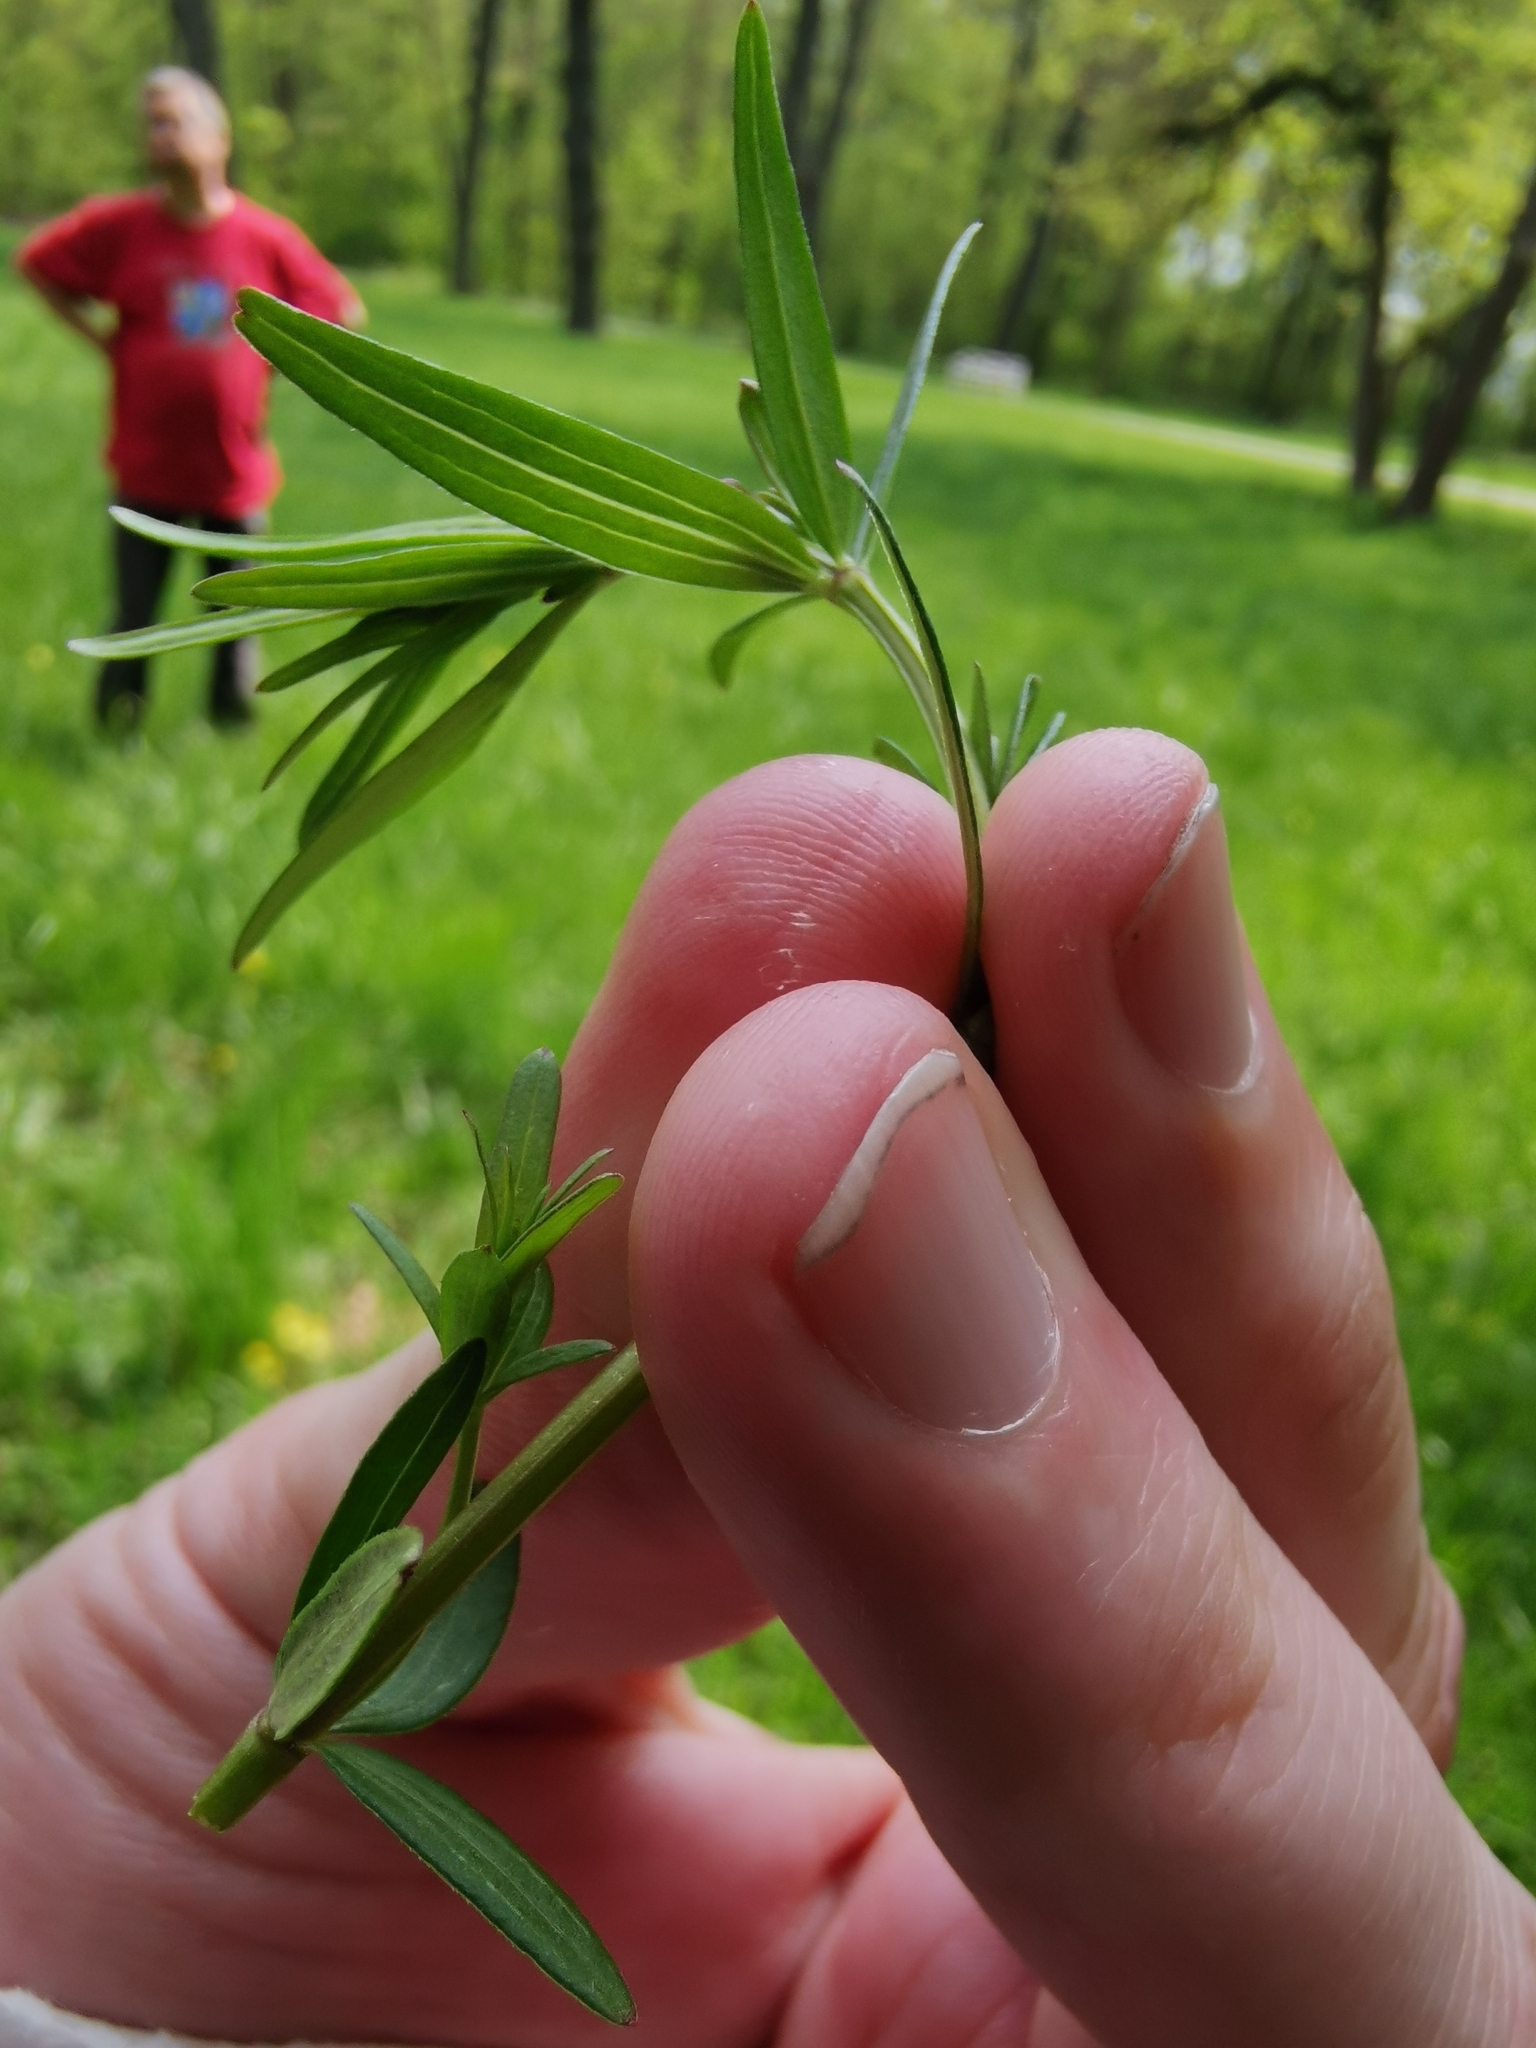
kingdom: Plantae
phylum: Tracheophyta
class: Magnoliopsida
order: Gentianales
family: Rubiaceae
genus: Galium
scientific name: Galium boreale
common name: Northern bedstraw
